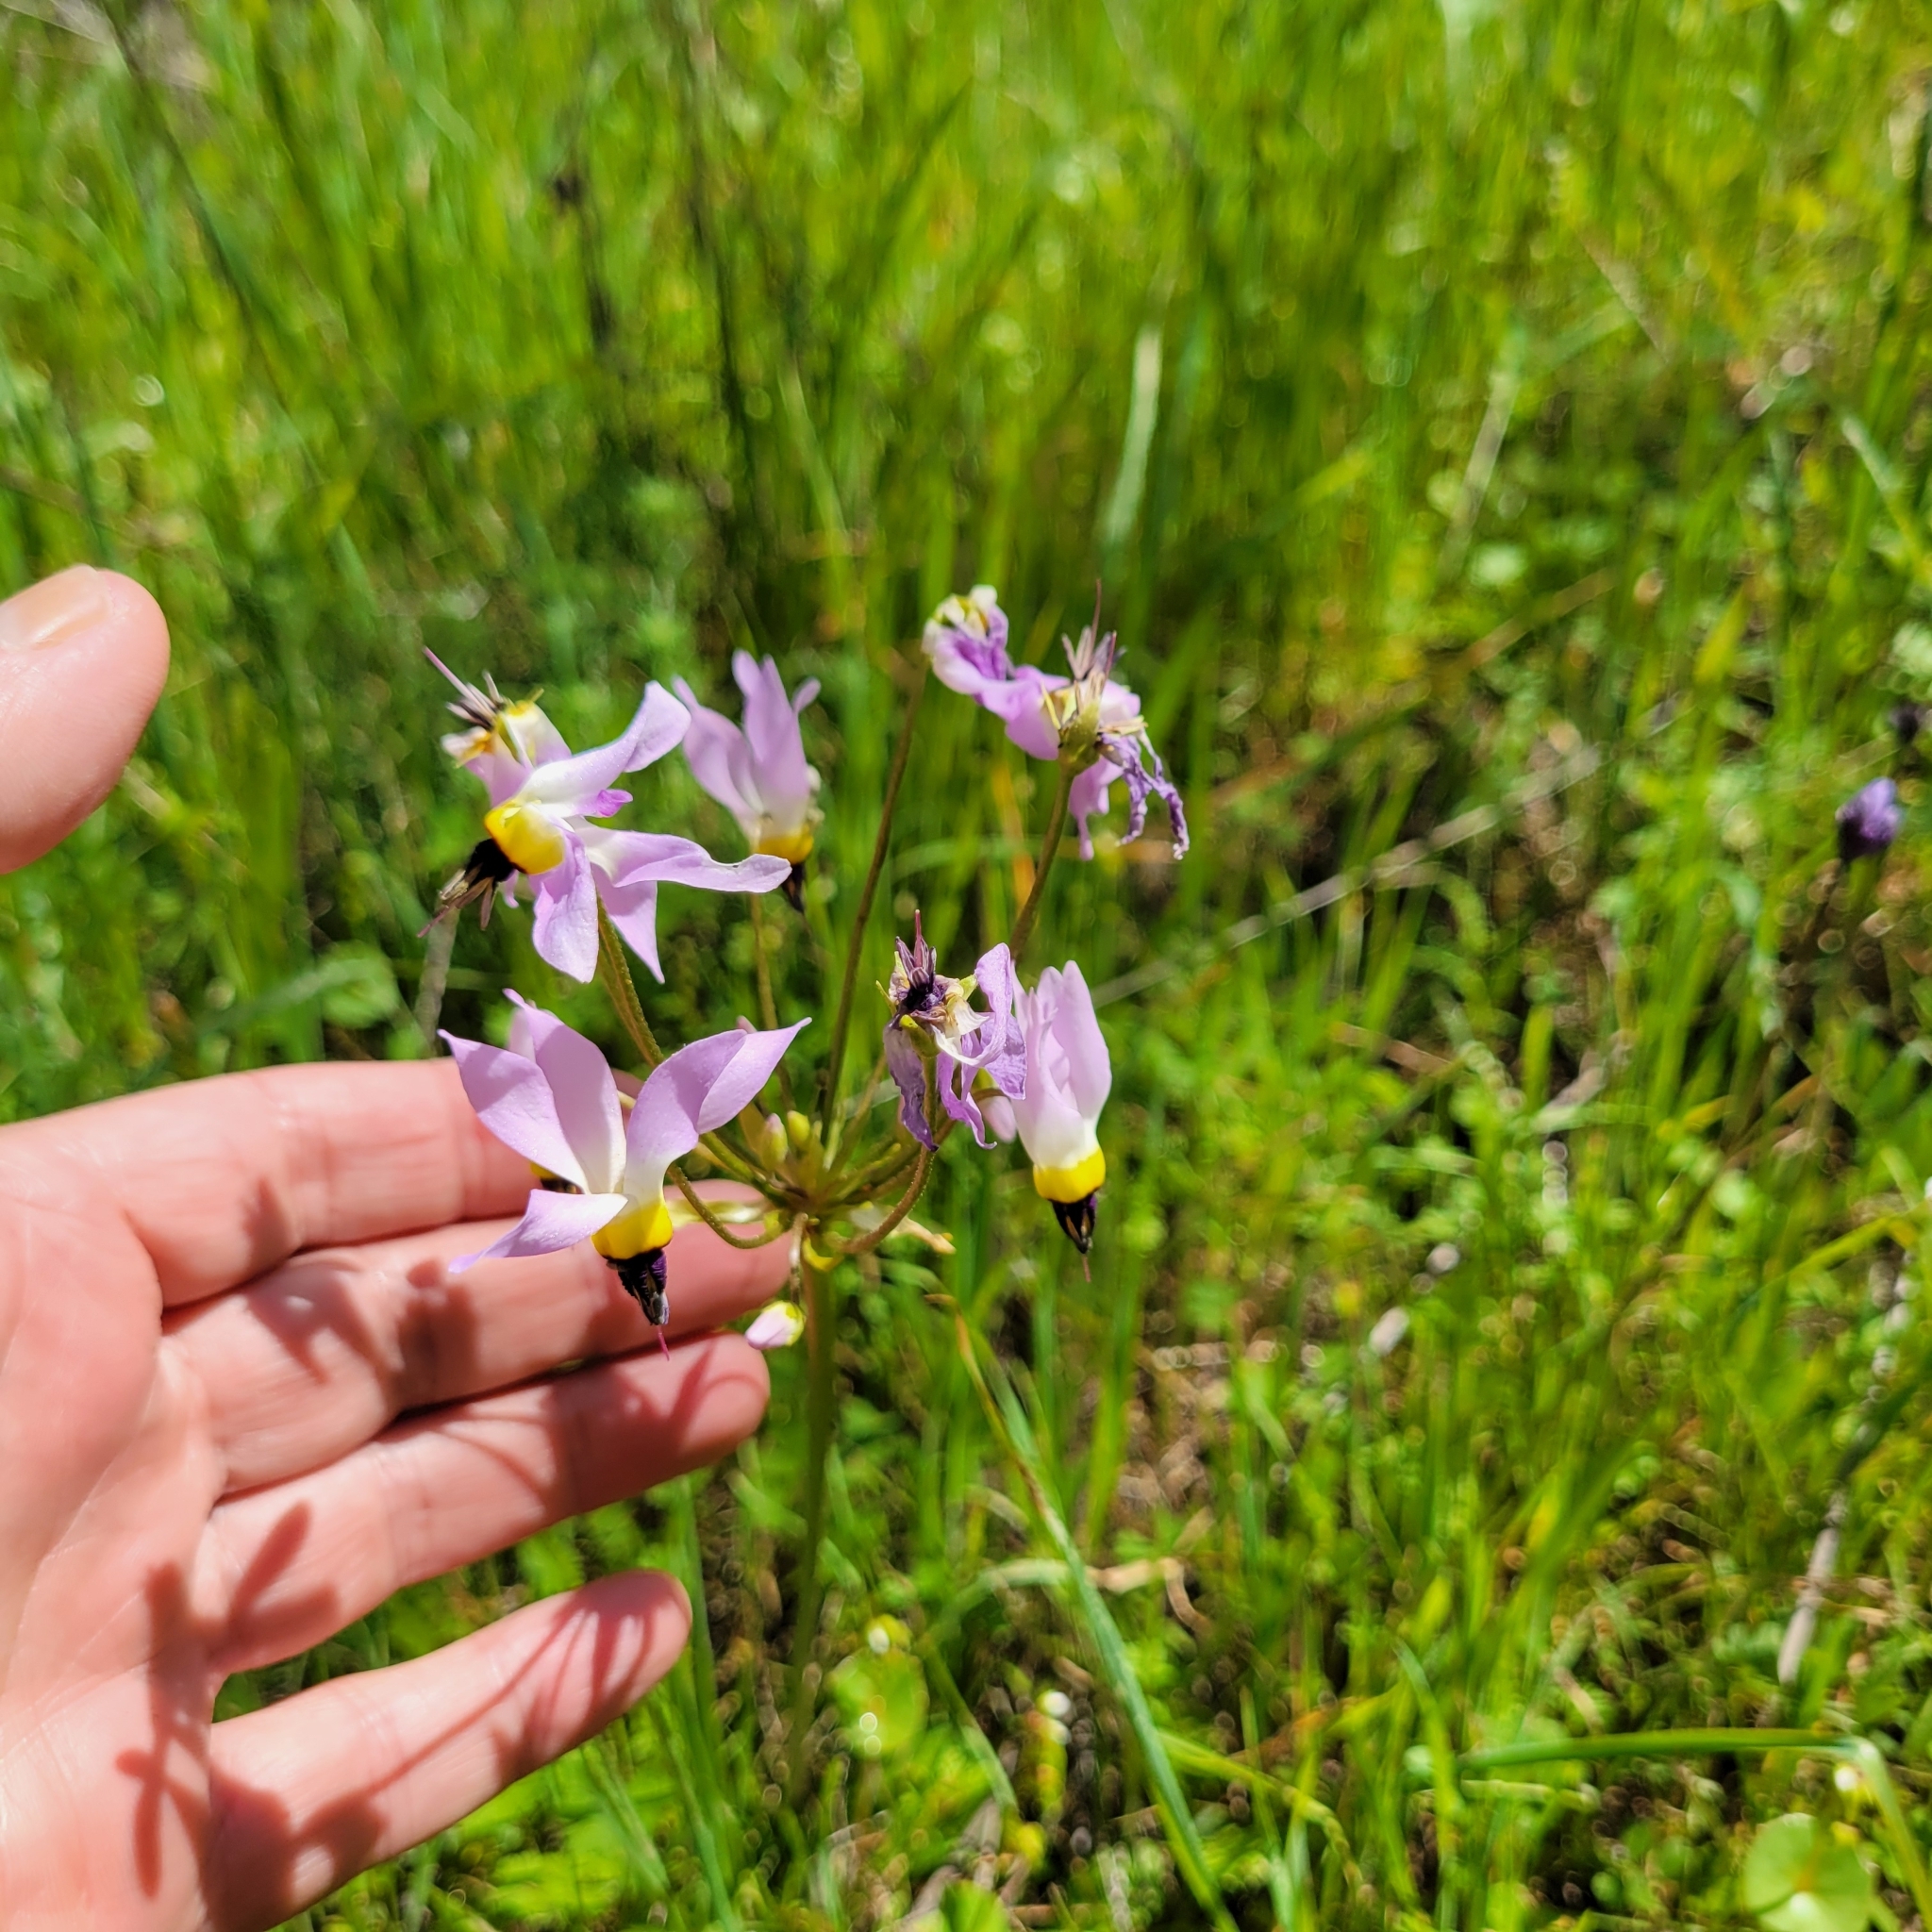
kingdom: Plantae
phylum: Tracheophyta
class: Magnoliopsida
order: Ericales
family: Primulaceae
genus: Dodecatheon
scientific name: Dodecatheon clevelandii
